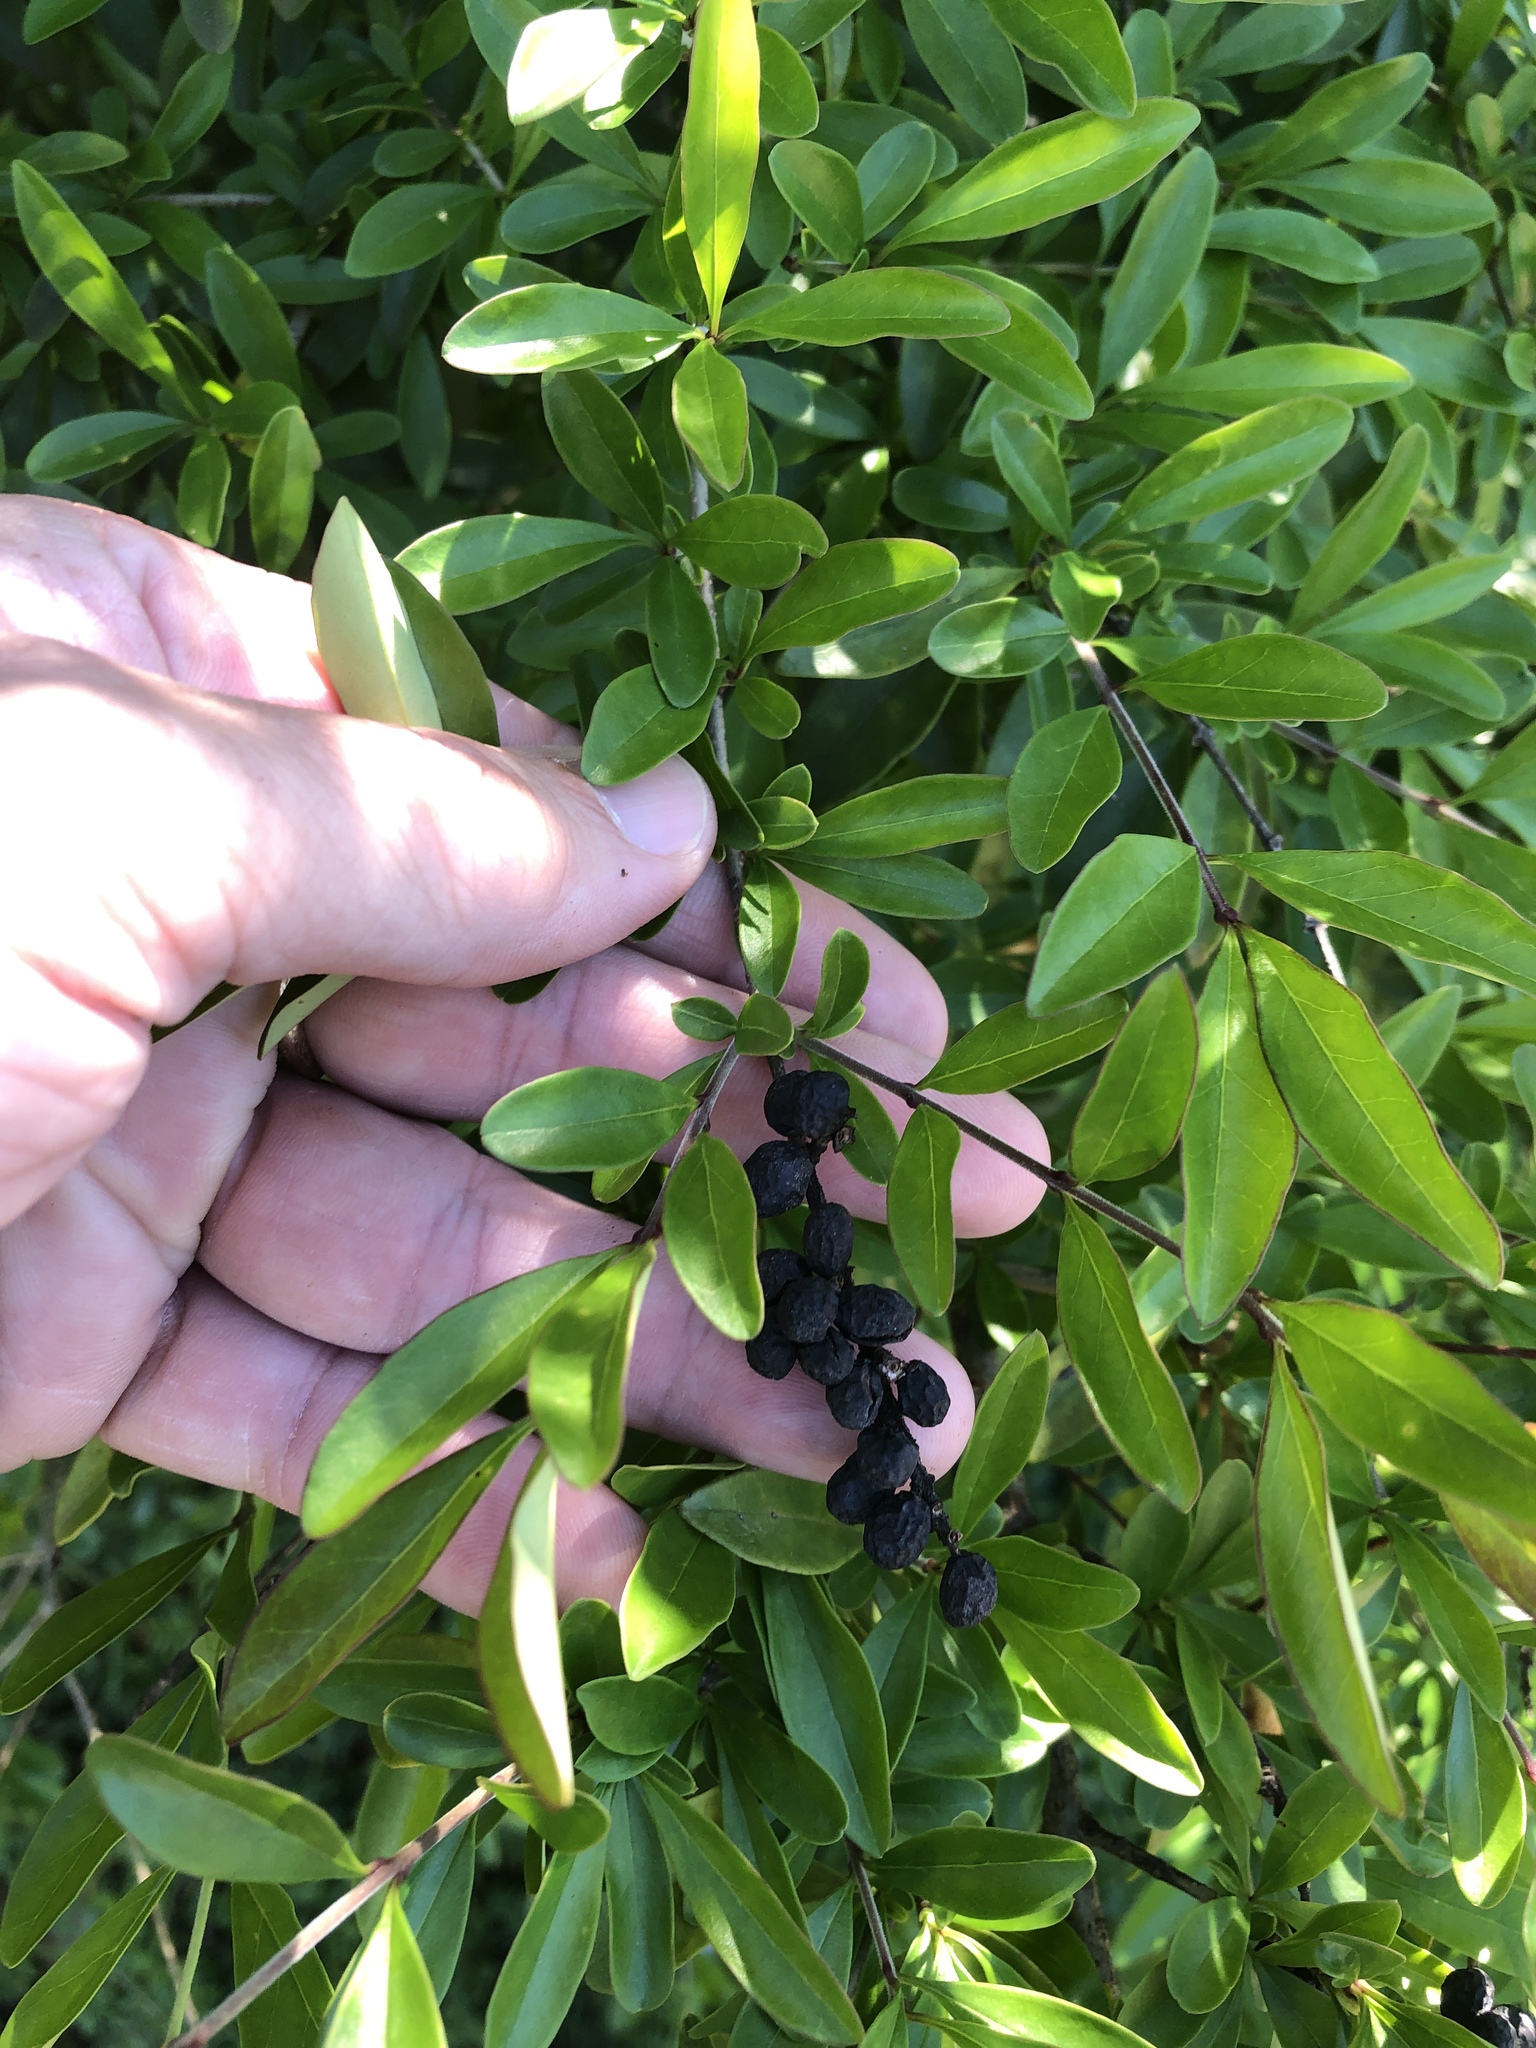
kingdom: Plantae
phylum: Tracheophyta
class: Magnoliopsida
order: Lamiales
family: Oleaceae
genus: Ligustrum
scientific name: Ligustrum quihoui
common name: Waxyleaf privet
